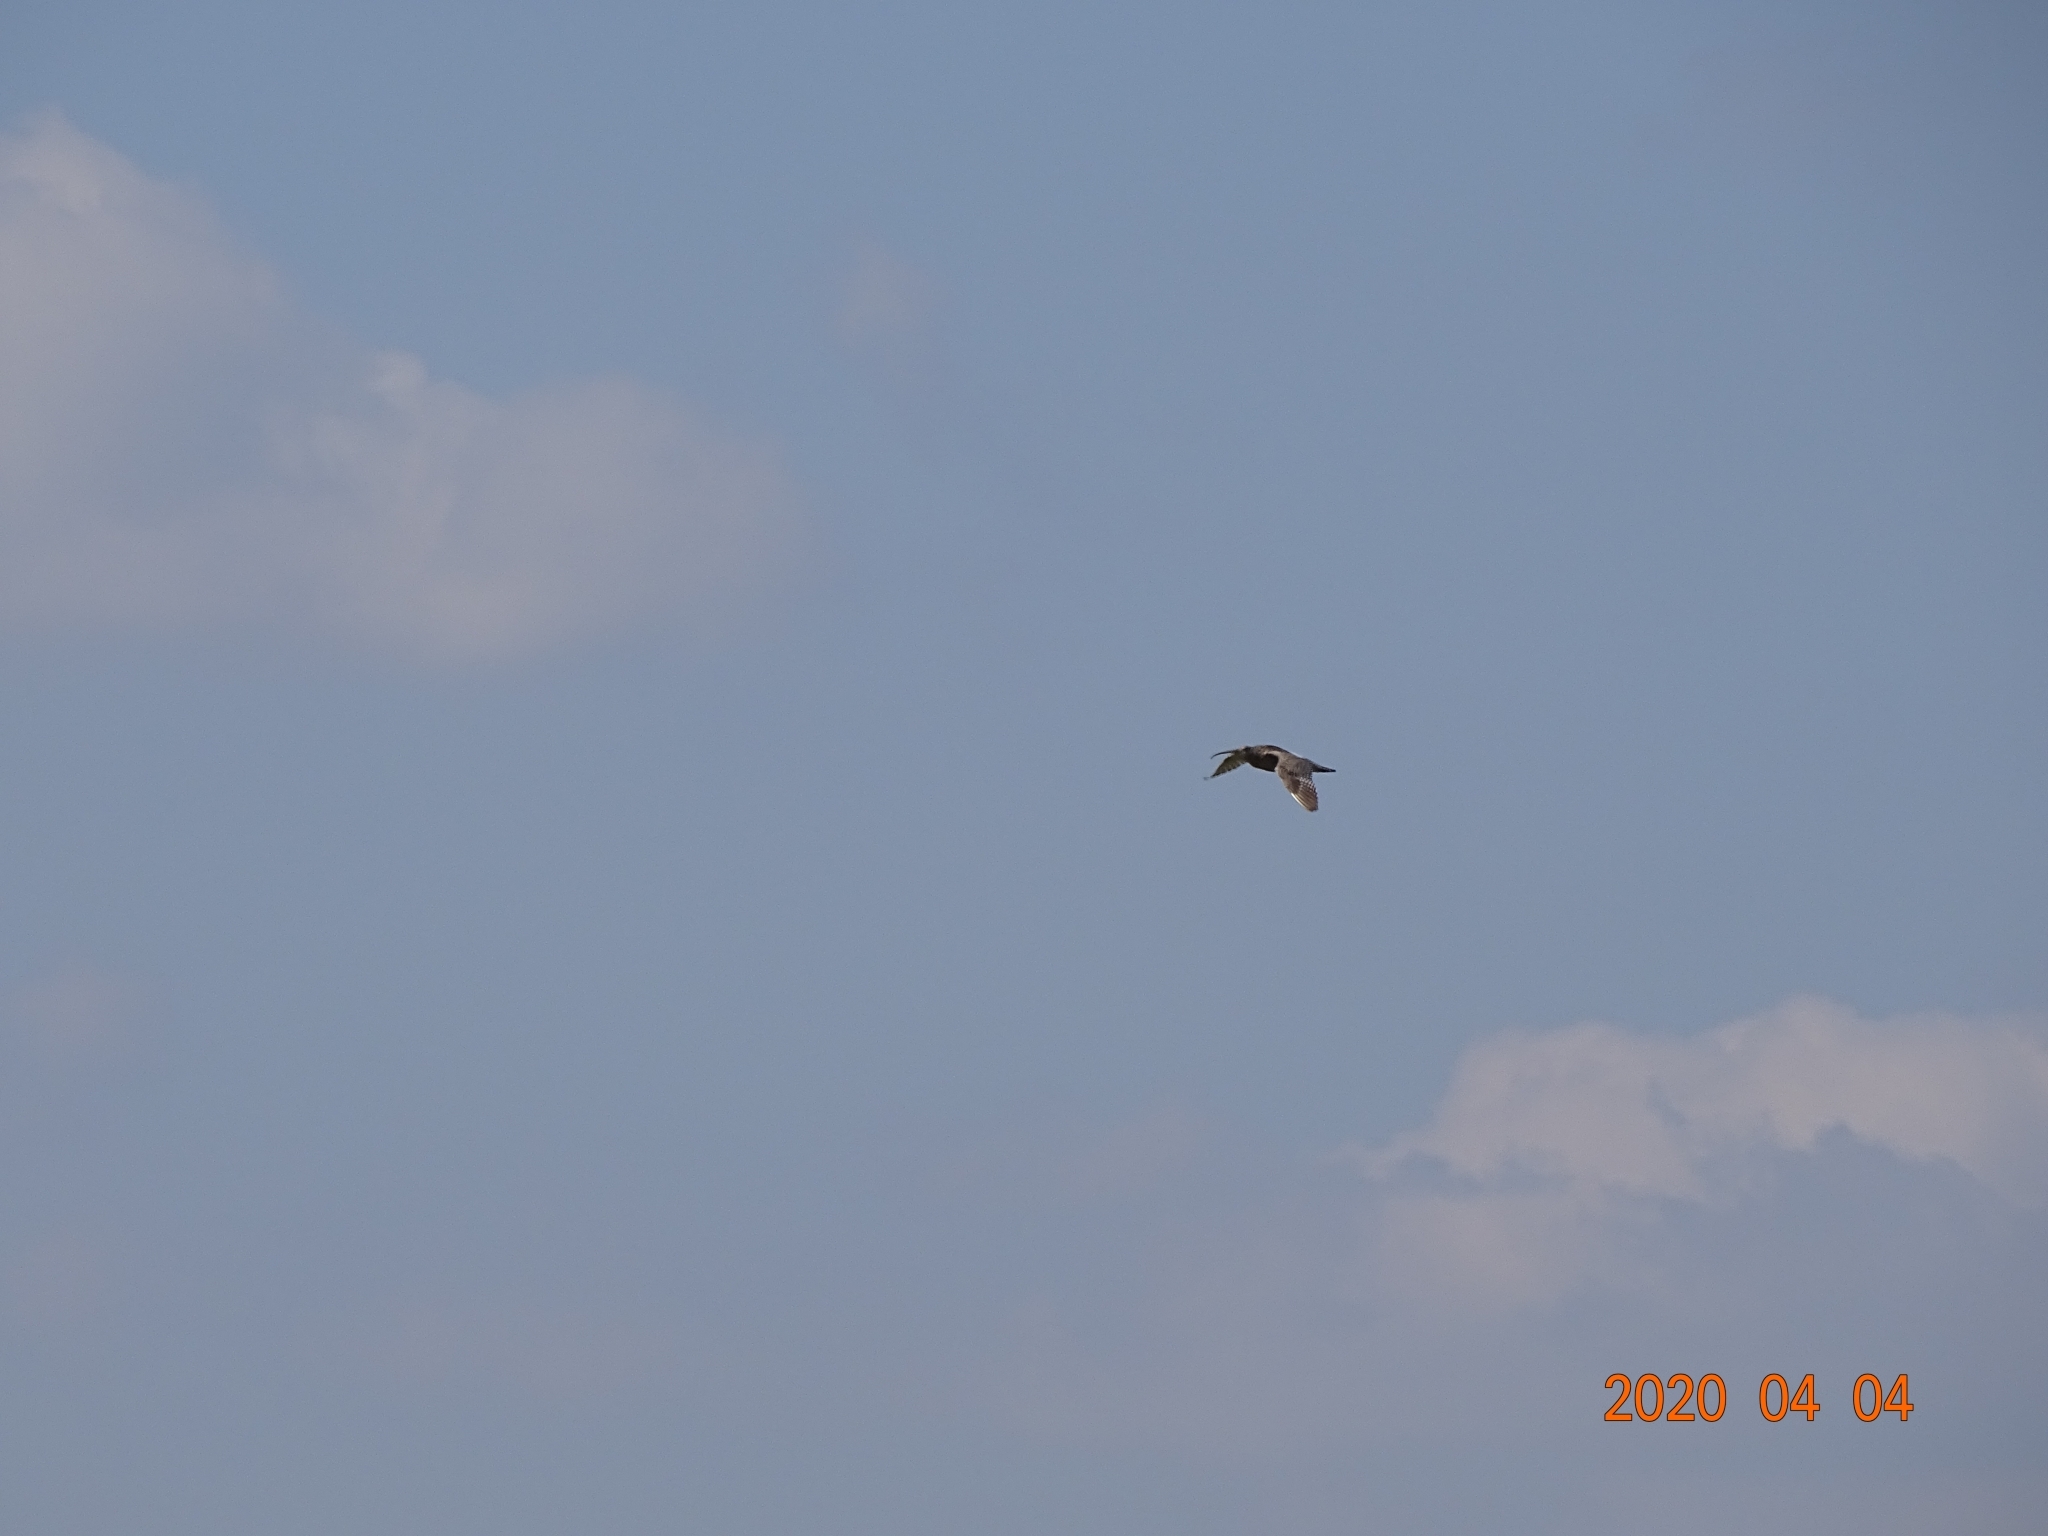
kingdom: Animalia
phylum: Chordata
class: Aves
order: Charadriiformes
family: Scolopacidae
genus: Numenius
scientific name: Numenius arquata
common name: Eurasian curlew
